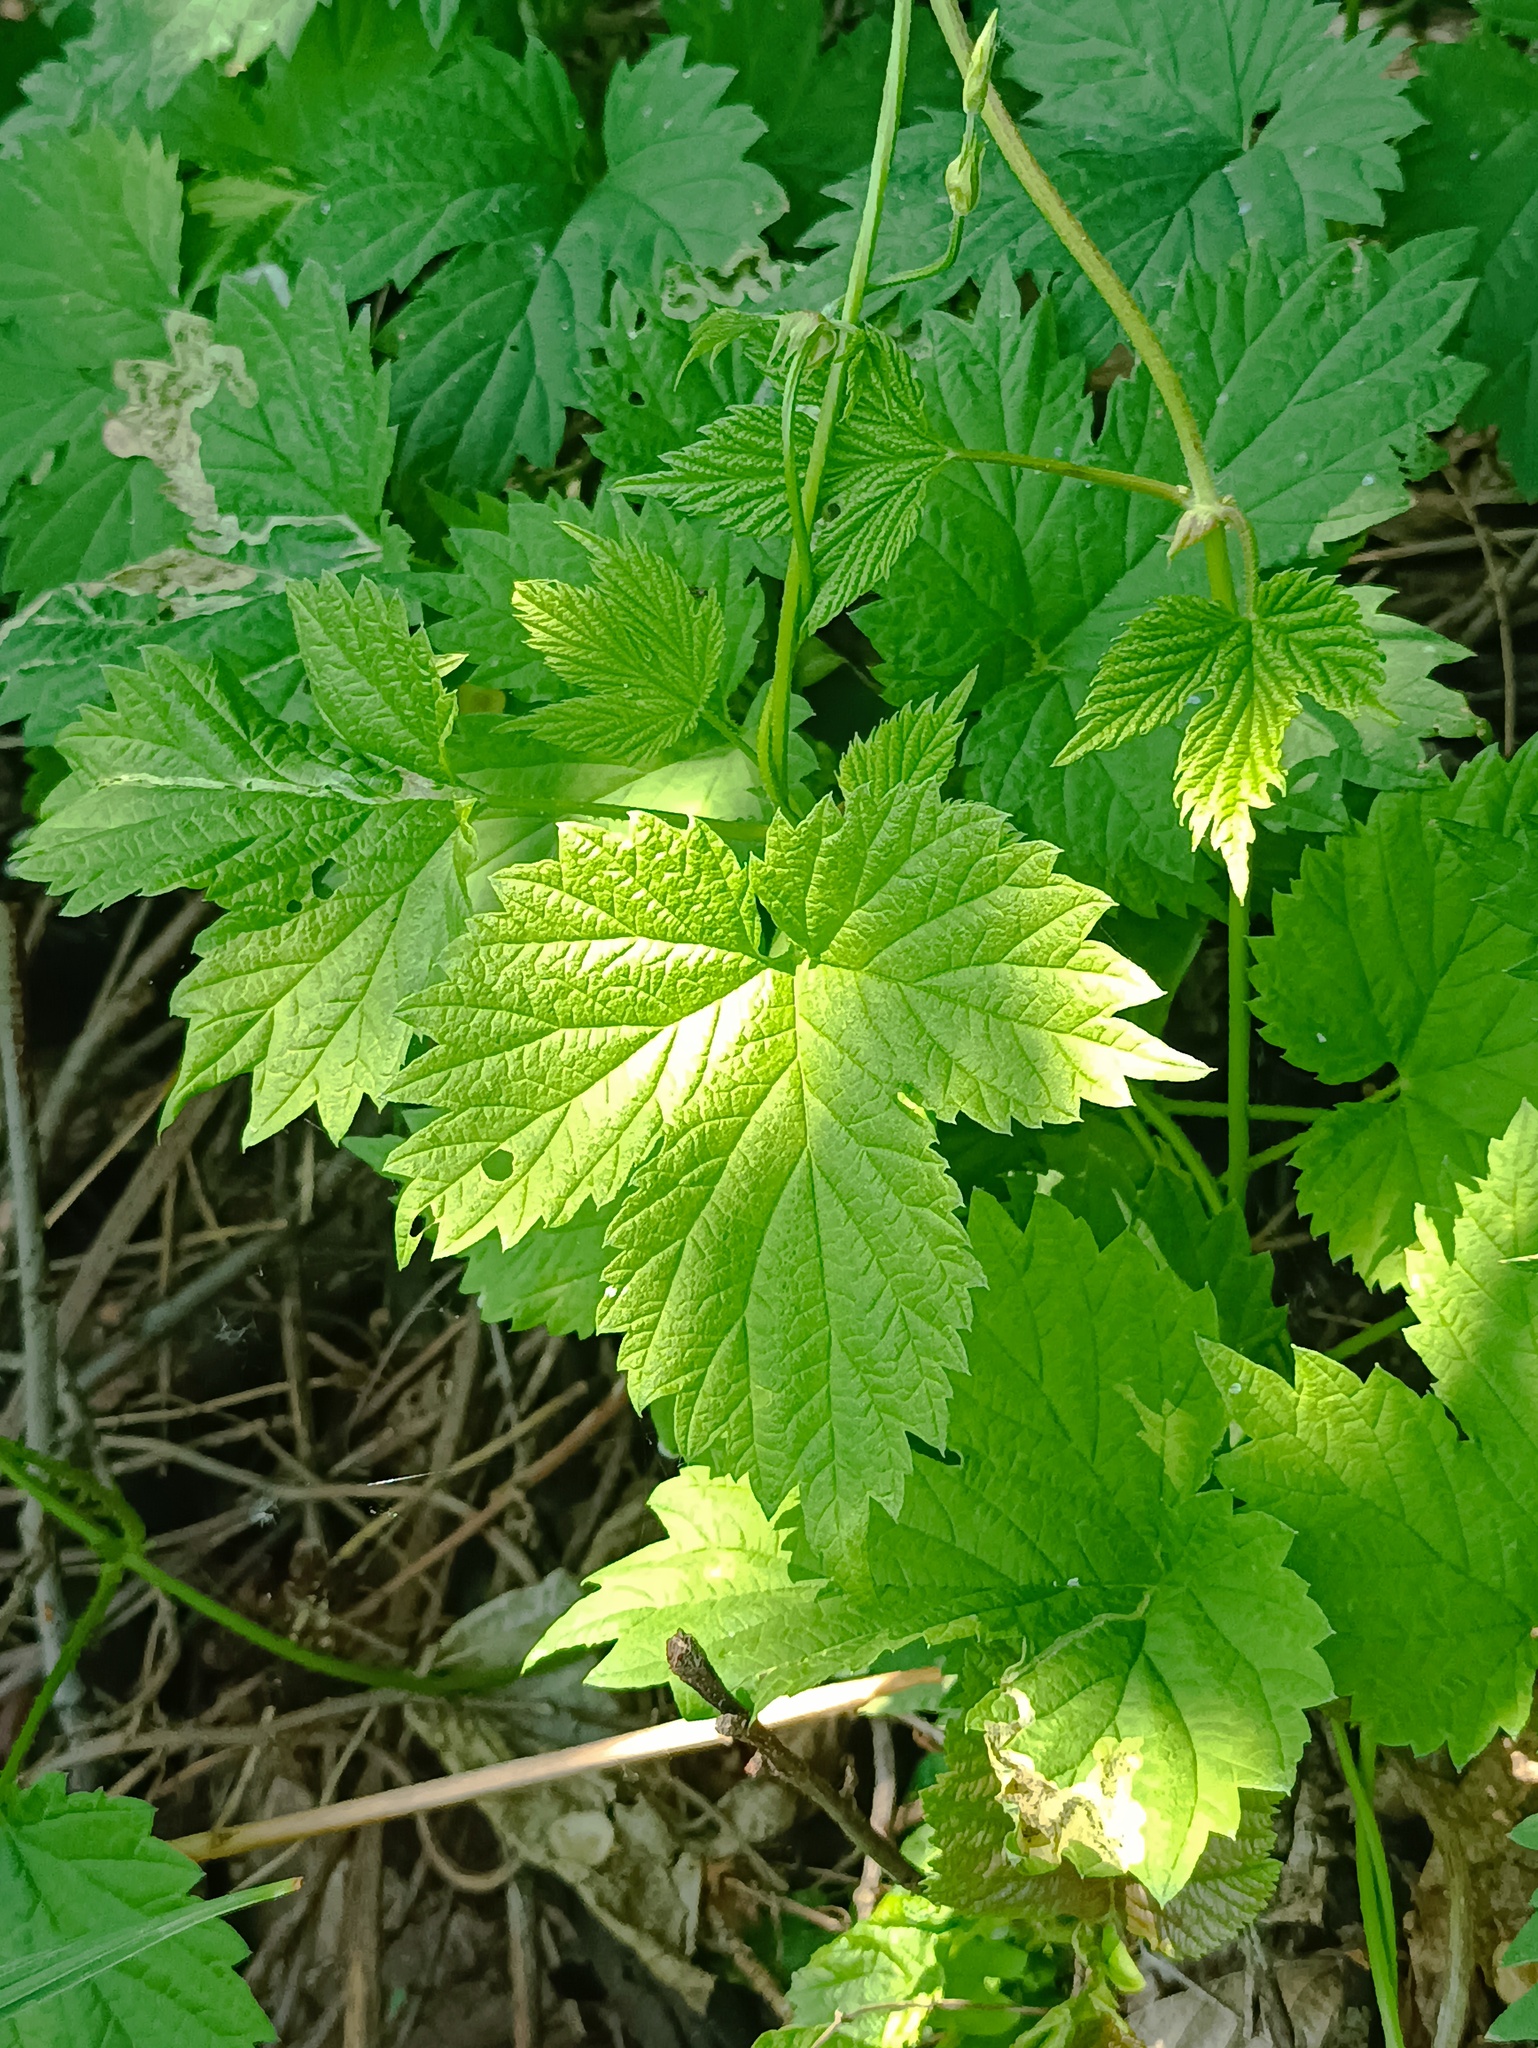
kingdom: Plantae
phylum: Tracheophyta
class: Magnoliopsida
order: Rosales
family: Cannabaceae
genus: Humulus
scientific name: Humulus lupulus
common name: Hop
